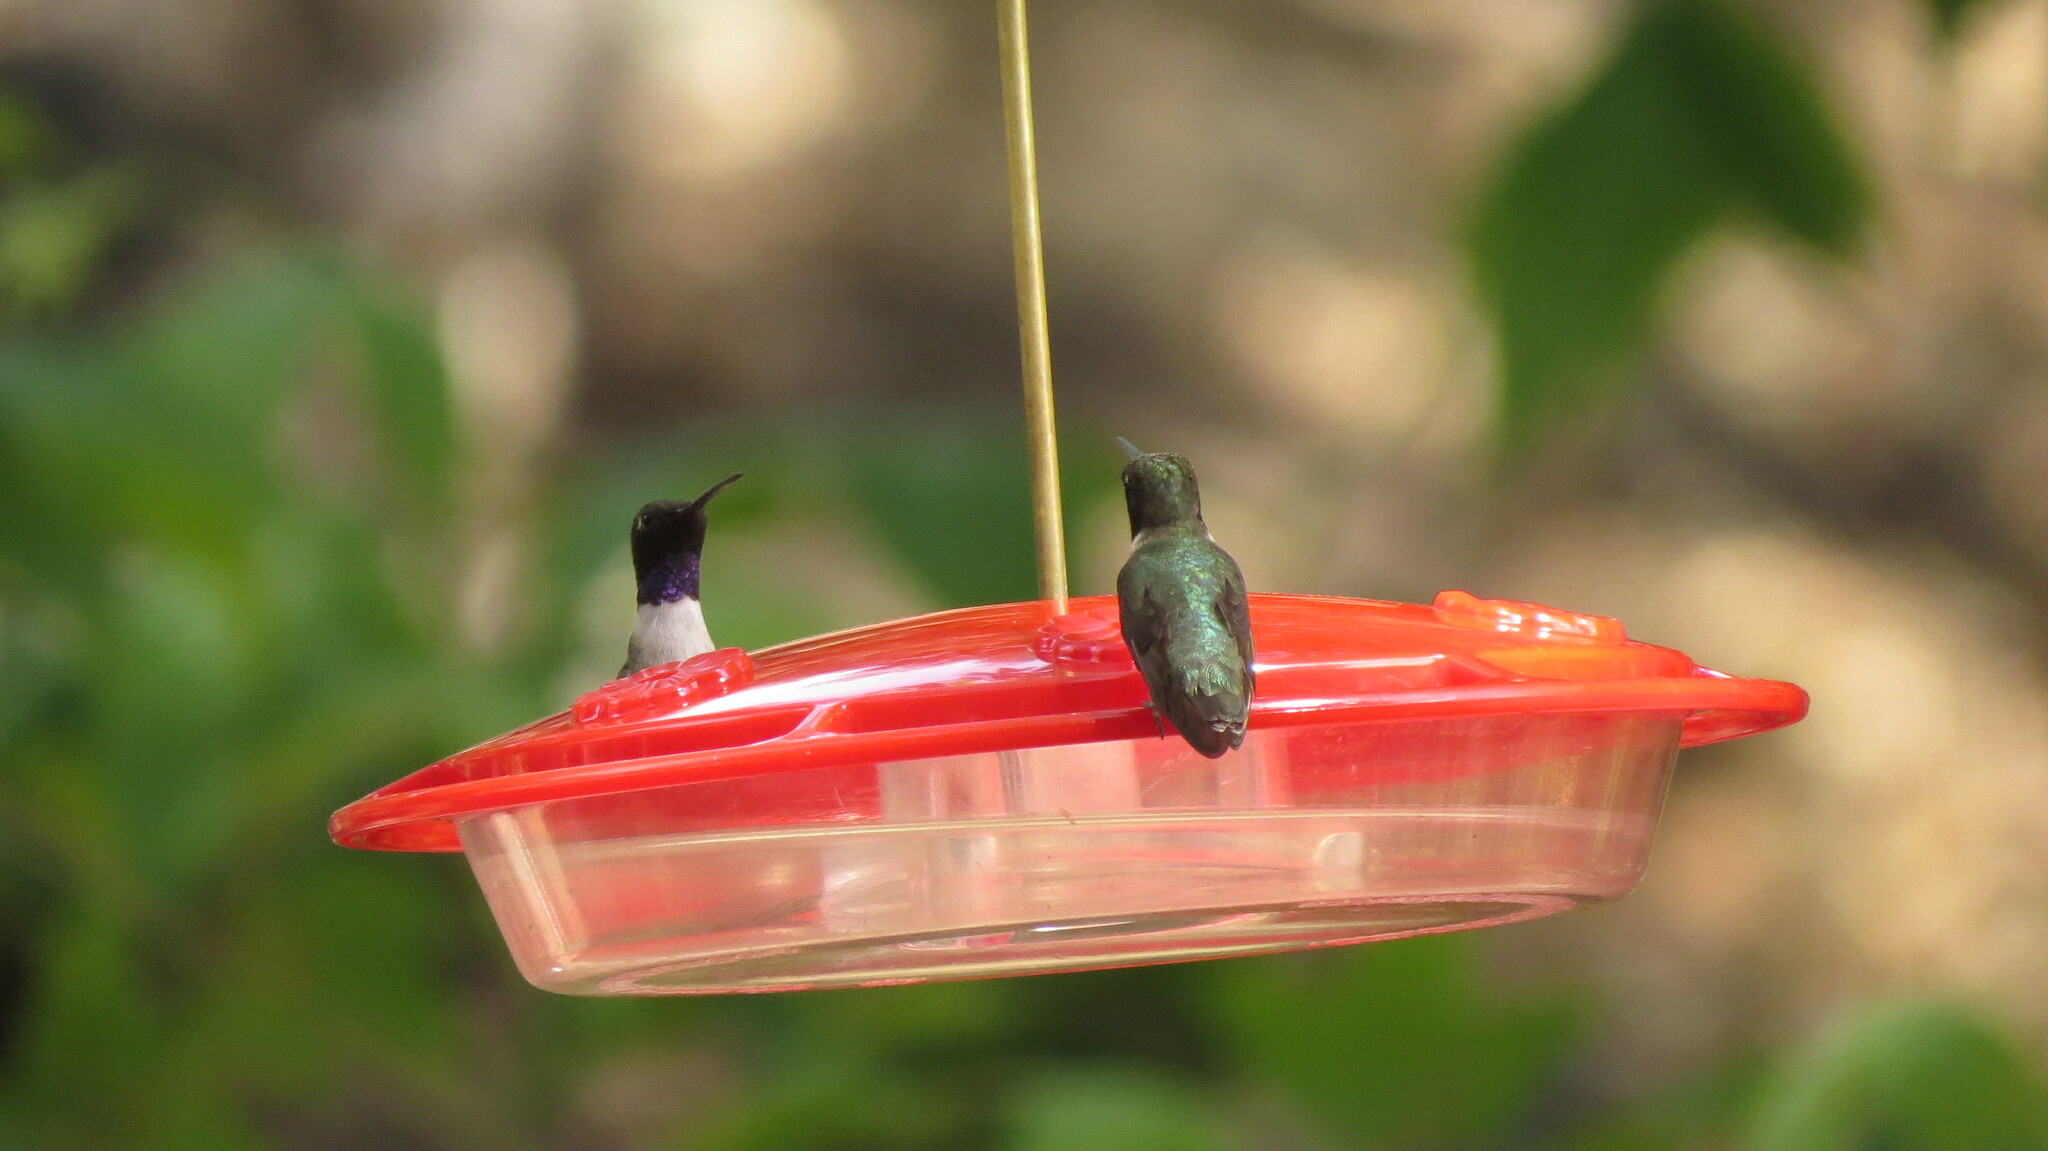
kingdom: Animalia
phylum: Chordata
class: Aves
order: Apodiformes
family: Trochilidae
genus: Archilochus
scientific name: Archilochus alexandri
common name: Black-chinned hummingbird
